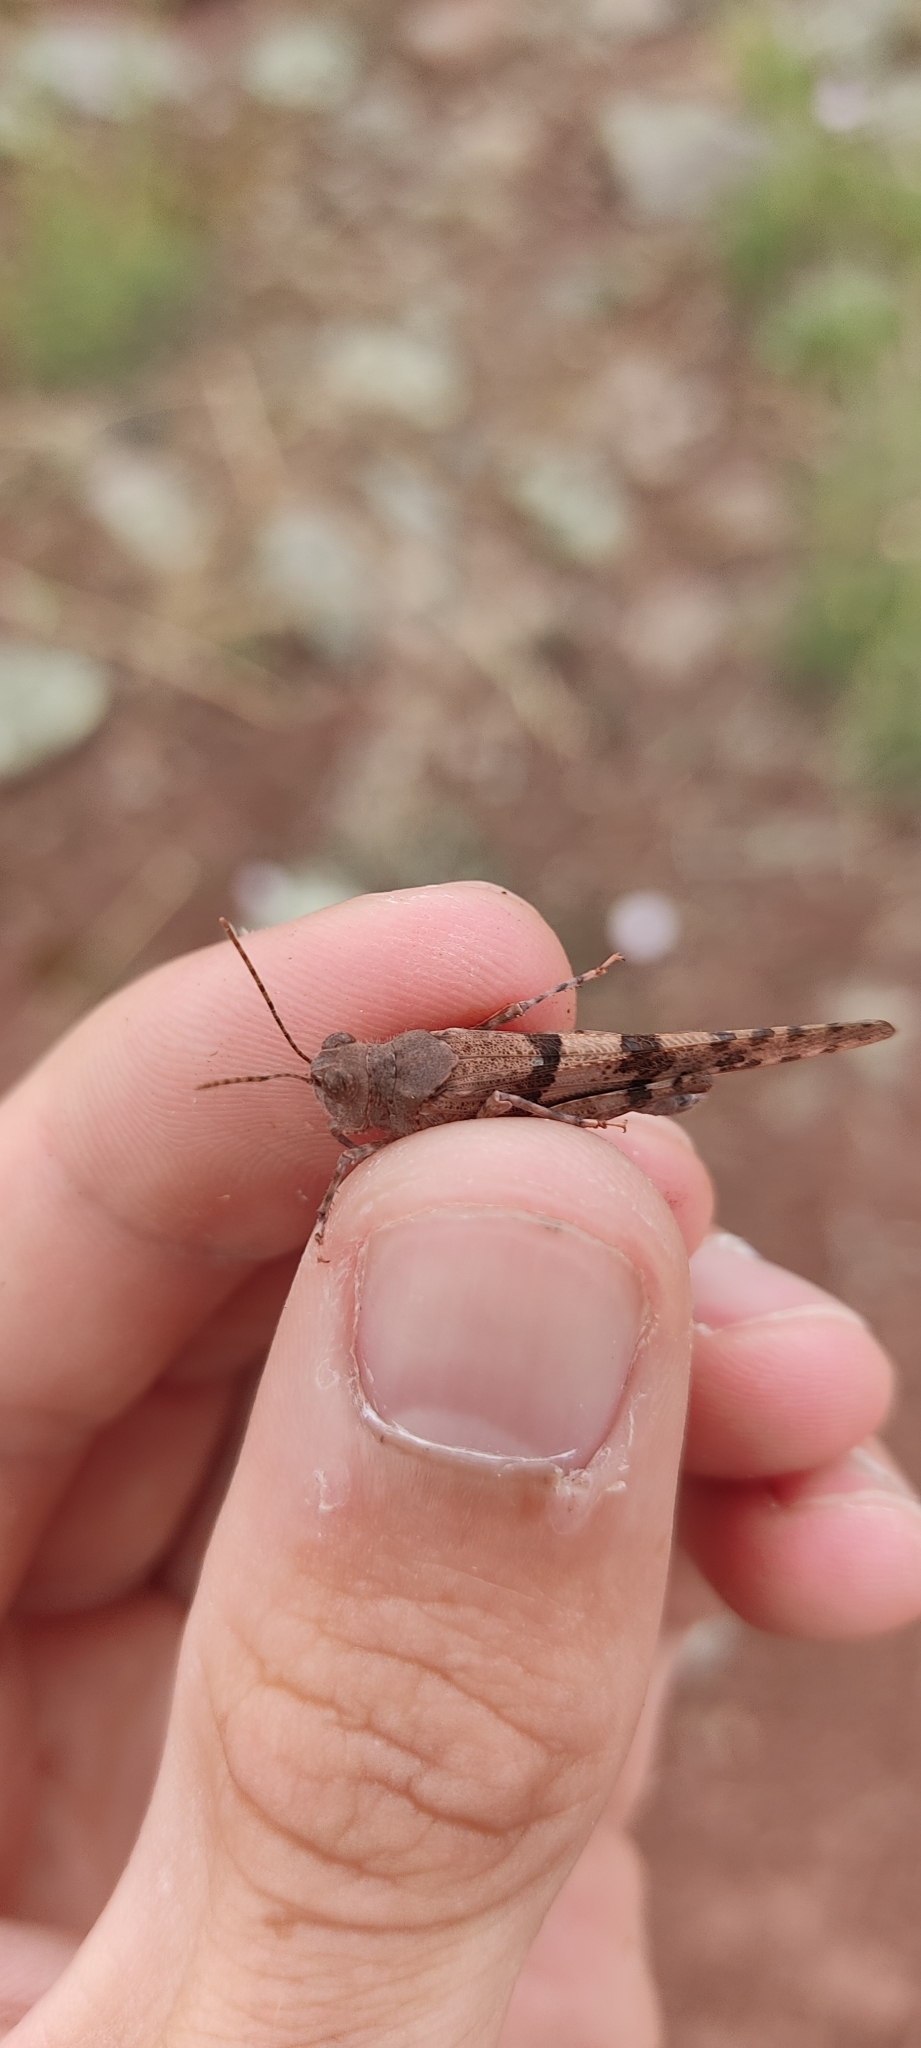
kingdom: Animalia
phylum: Arthropoda
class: Insecta
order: Orthoptera
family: Acrididae
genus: Sphingonotus
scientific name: Sphingonotus caerulans
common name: Blue-winged locust
